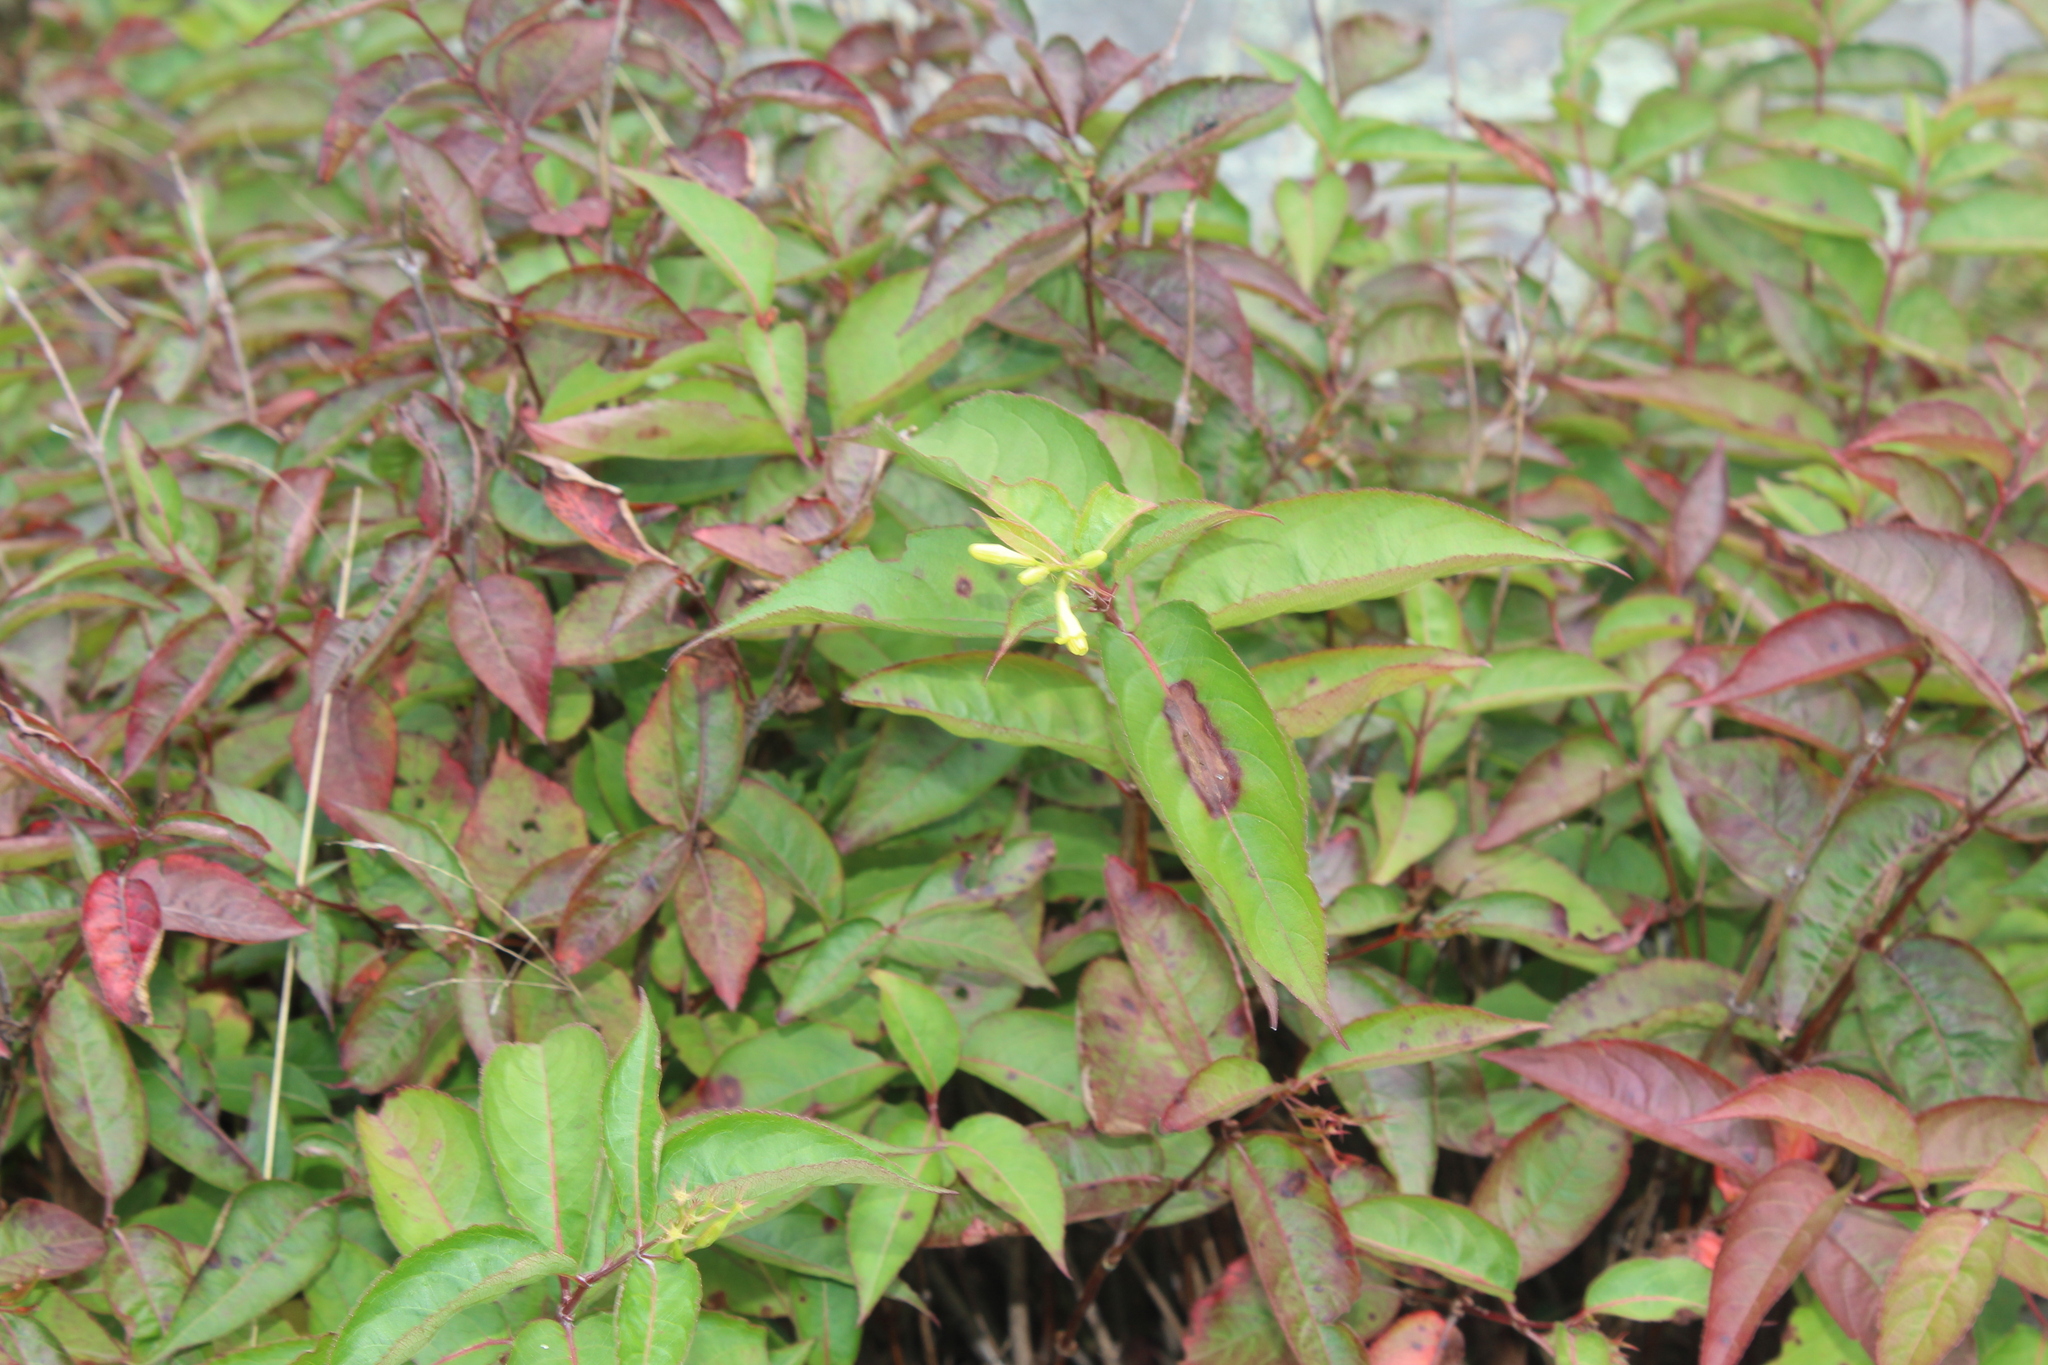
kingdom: Plantae
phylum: Tracheophyta
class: Magnoliopsida
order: Dipsacales
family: Caprifoliaceae
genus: Diervilla
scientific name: Diervilla lonicera
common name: Bush-honeysuckle
